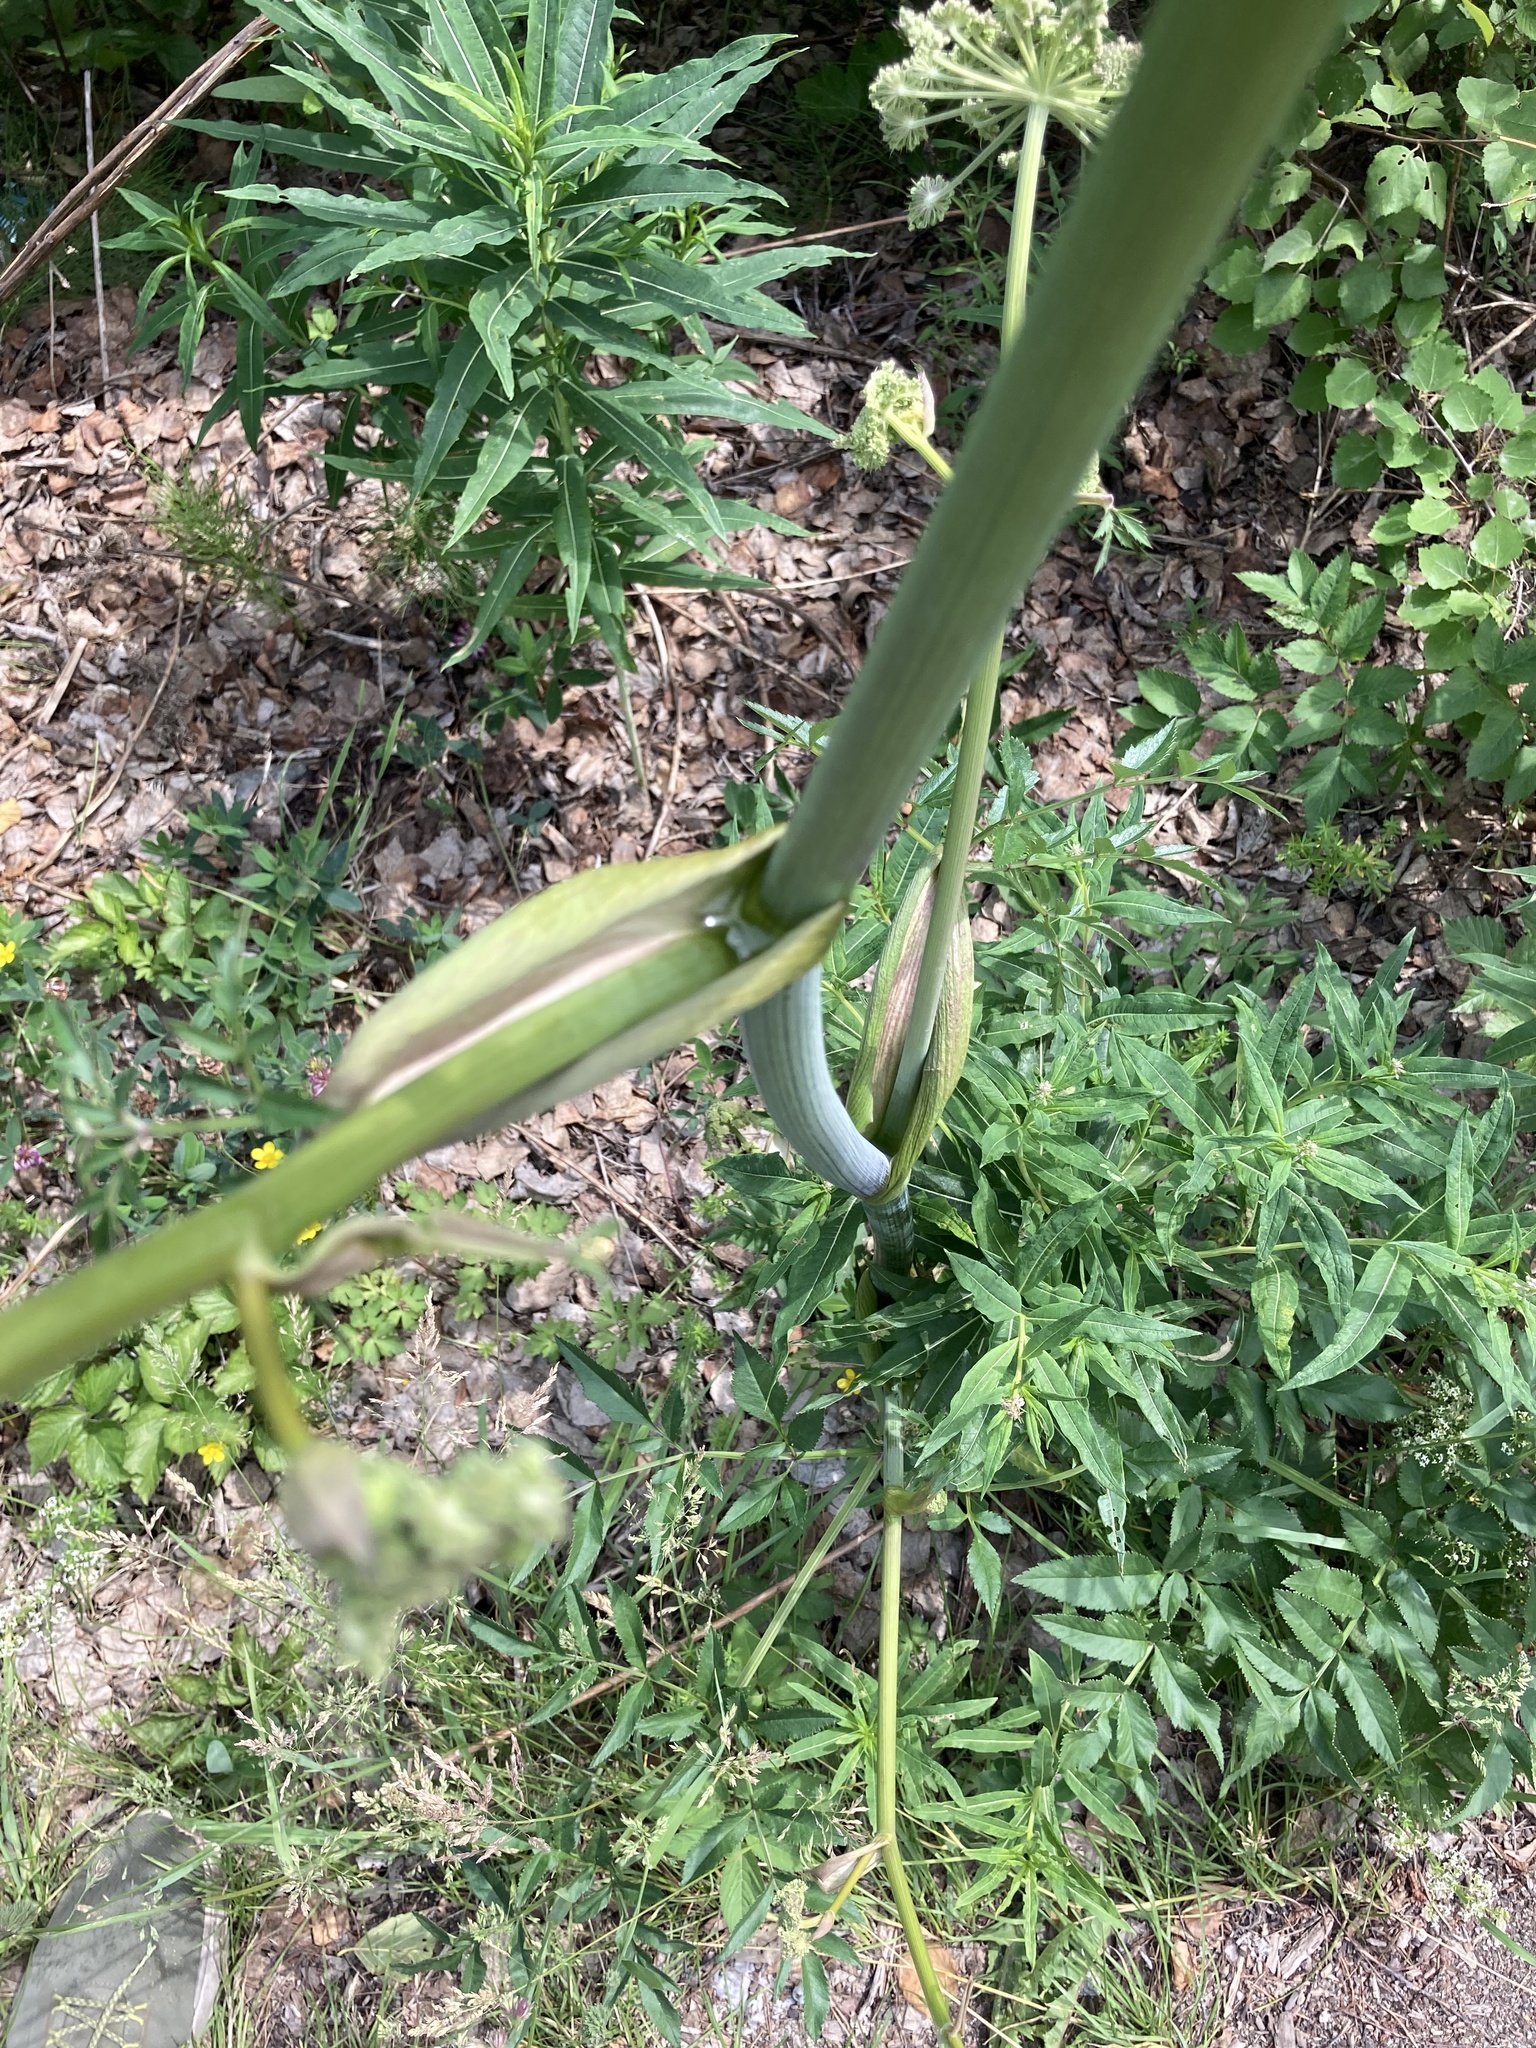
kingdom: Plantae
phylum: Tracheophyta
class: Magnoliopsida
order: Apiales
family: Apiaceae
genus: Angelica
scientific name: Angelica sylvestris
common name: Wild angelica
